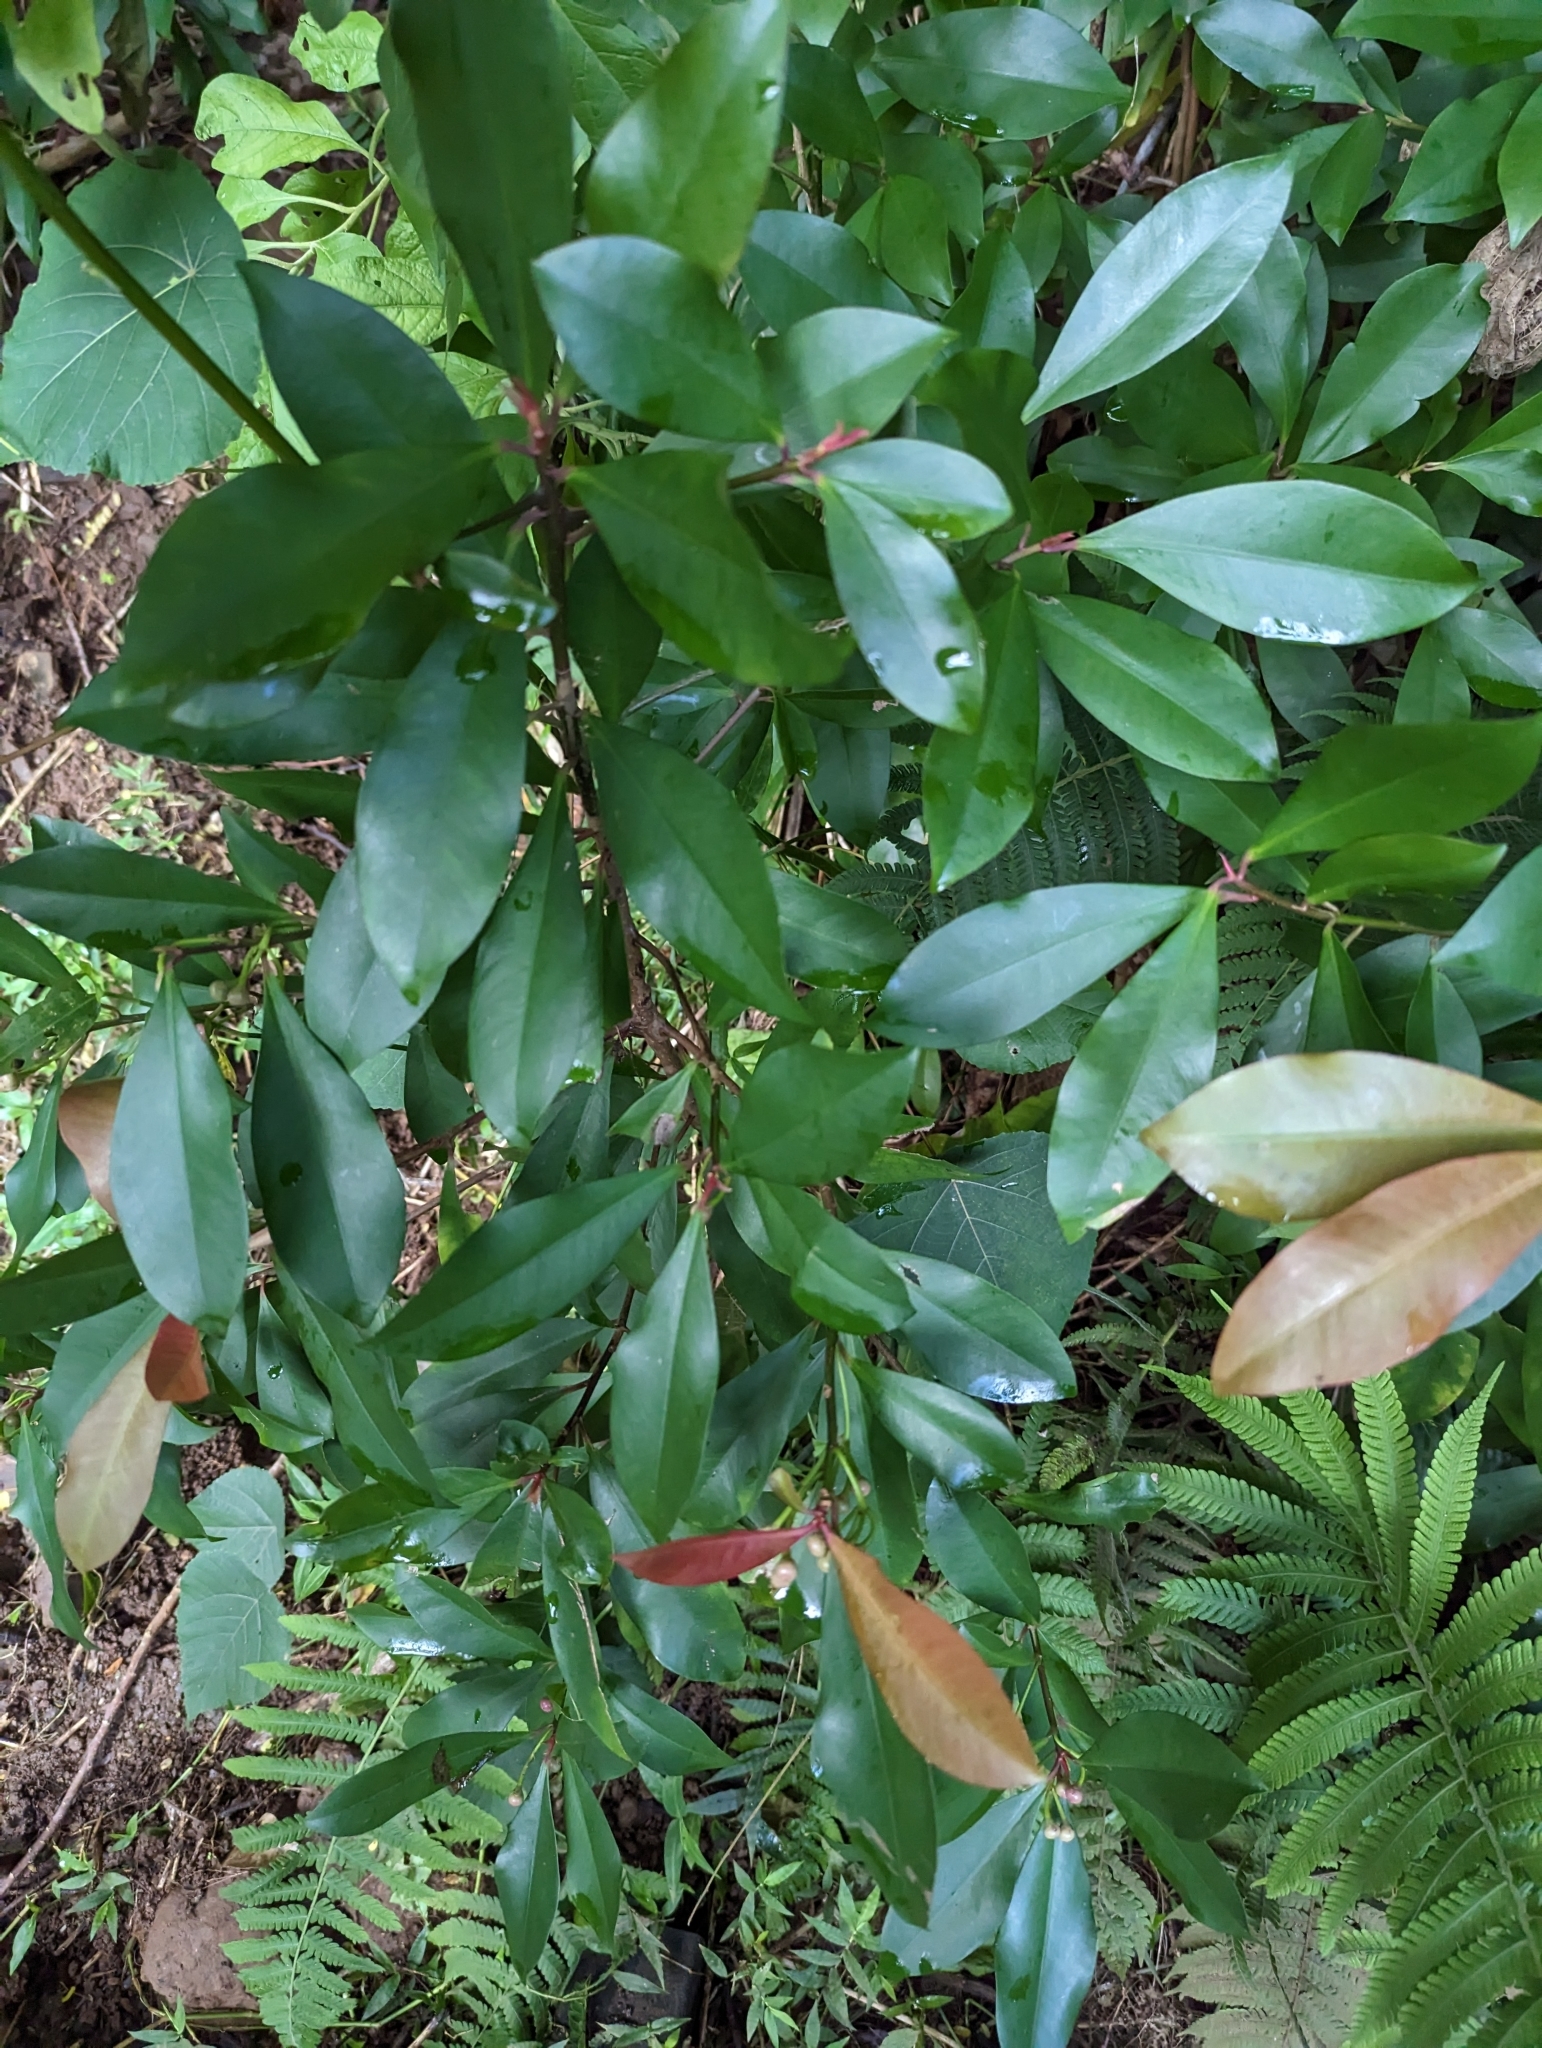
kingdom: Plantae
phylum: Tracheophyta
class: Magnoliopsida
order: Ericales
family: Primulaceae
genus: Ardisia
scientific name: Ardisia elliptica
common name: Shoebutton
